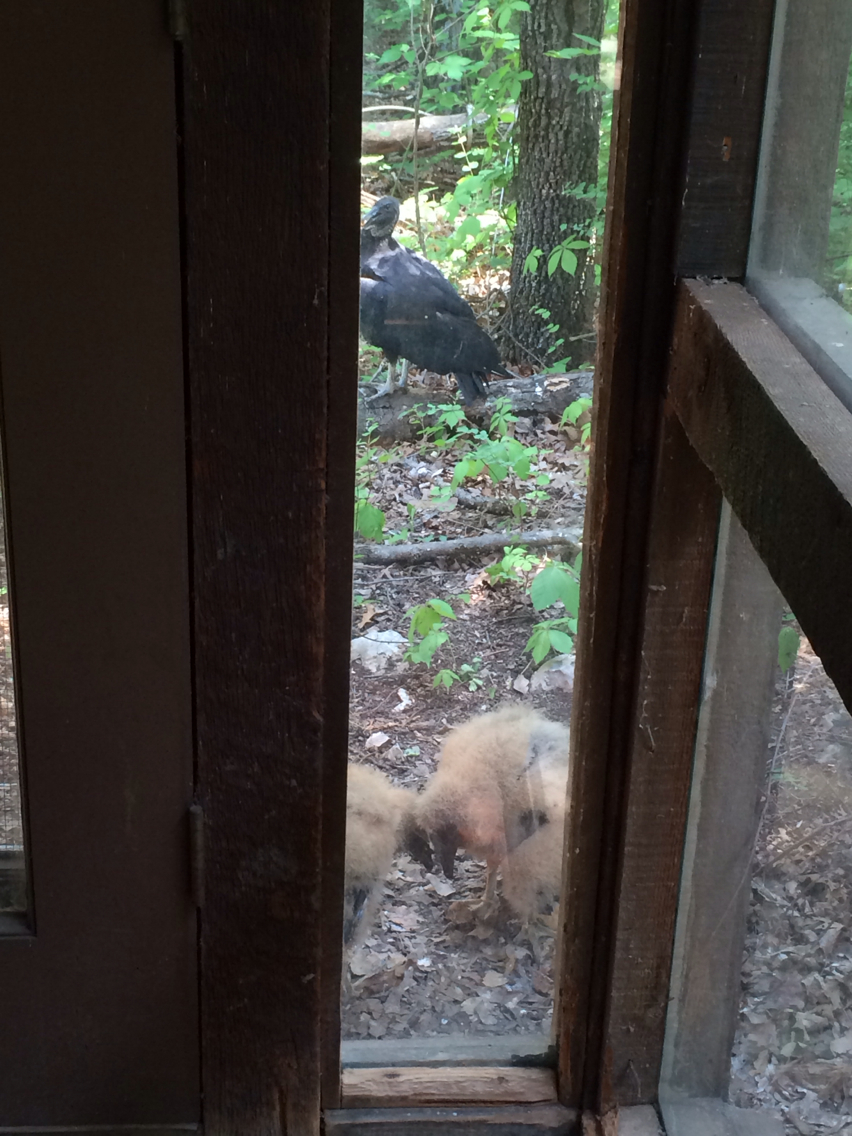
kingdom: Animalia
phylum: Chordata
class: Aves
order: Accipitriformes
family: Cathartidae
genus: Coragyps
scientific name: Coragyps atratus
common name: Black vulture
